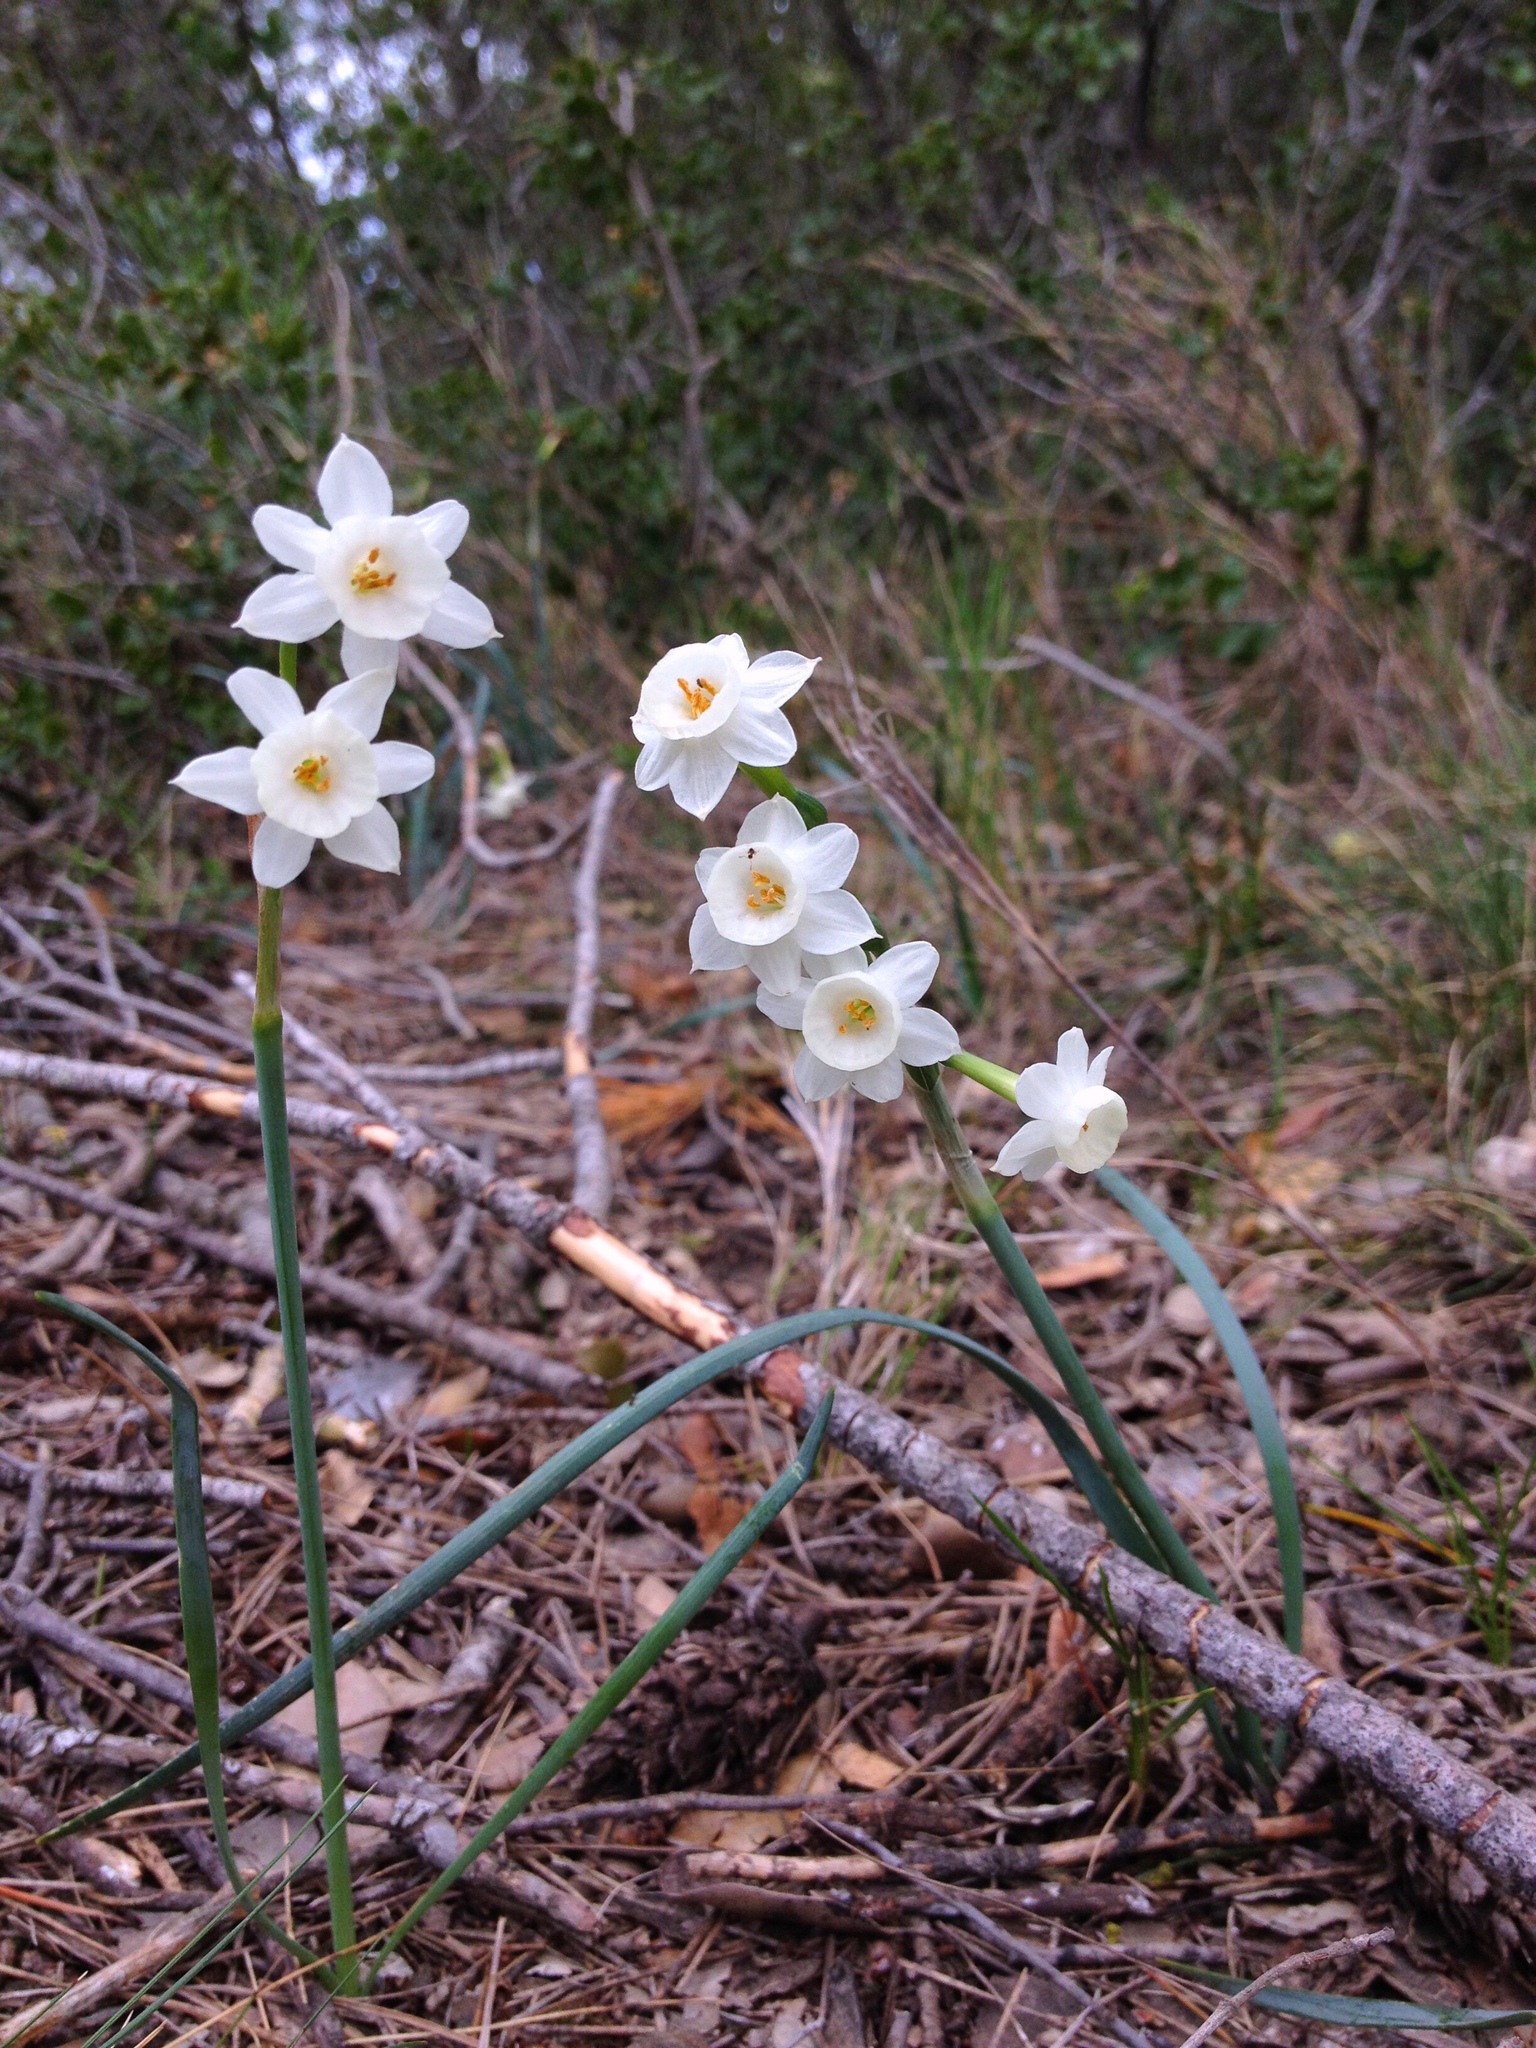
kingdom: Plantae
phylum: Tracheophyta
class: Liliopsida
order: Asparagales
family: Amaryllidaceae
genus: Narcissus
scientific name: Narcissus dubius
